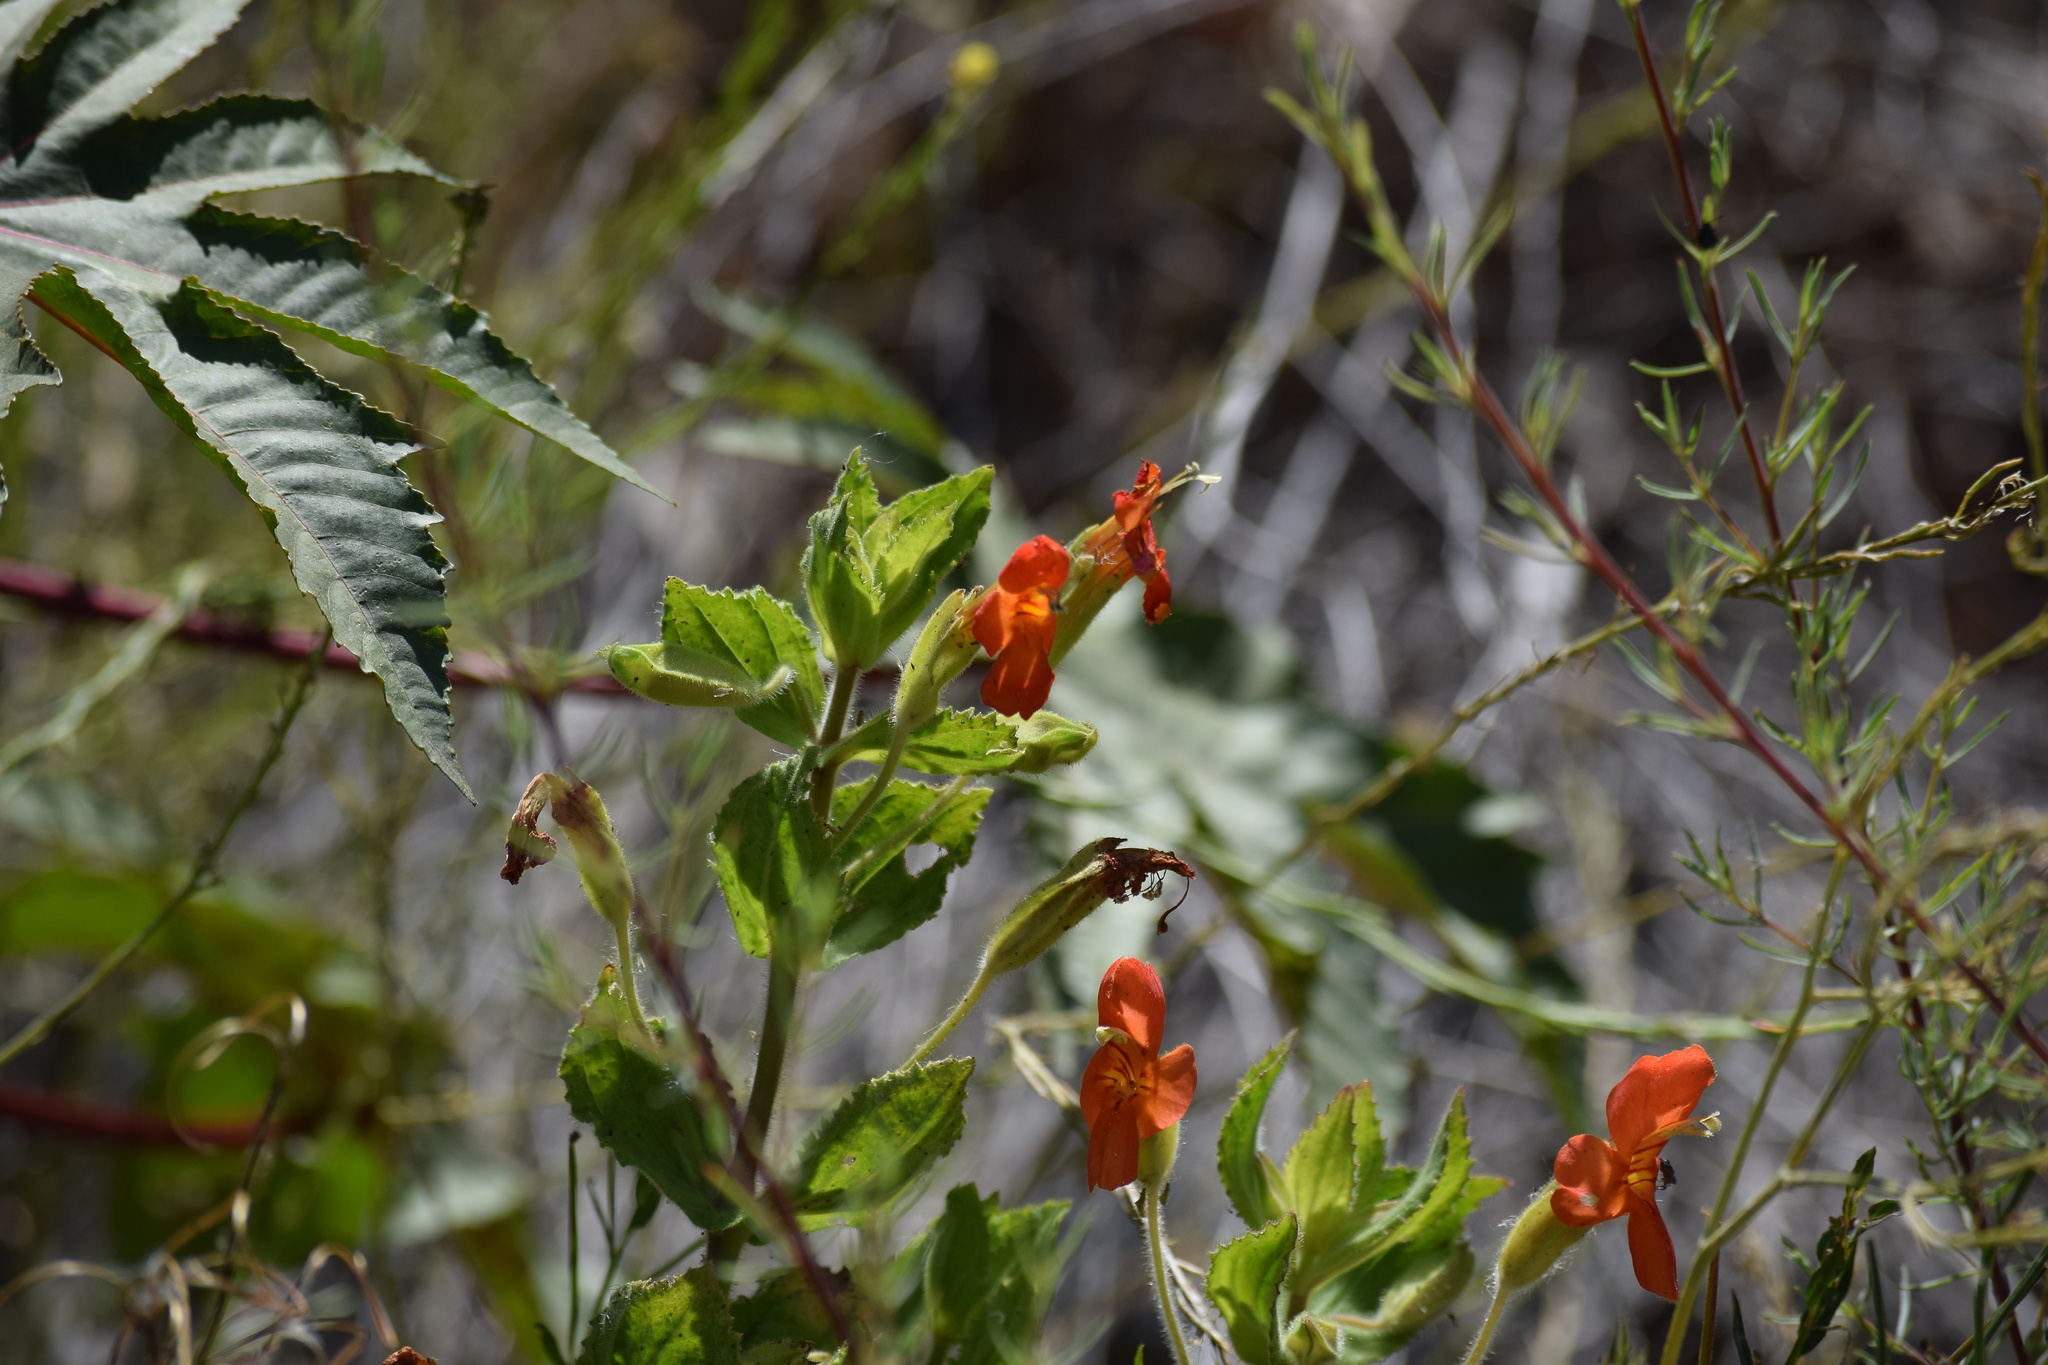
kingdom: Plantae
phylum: Tracheophyta
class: Magnoliopsida
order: Lamiales
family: Phrymaceae
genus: Erythranthe
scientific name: Erythranthe cardinalis
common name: Scarlet monkey-flower
